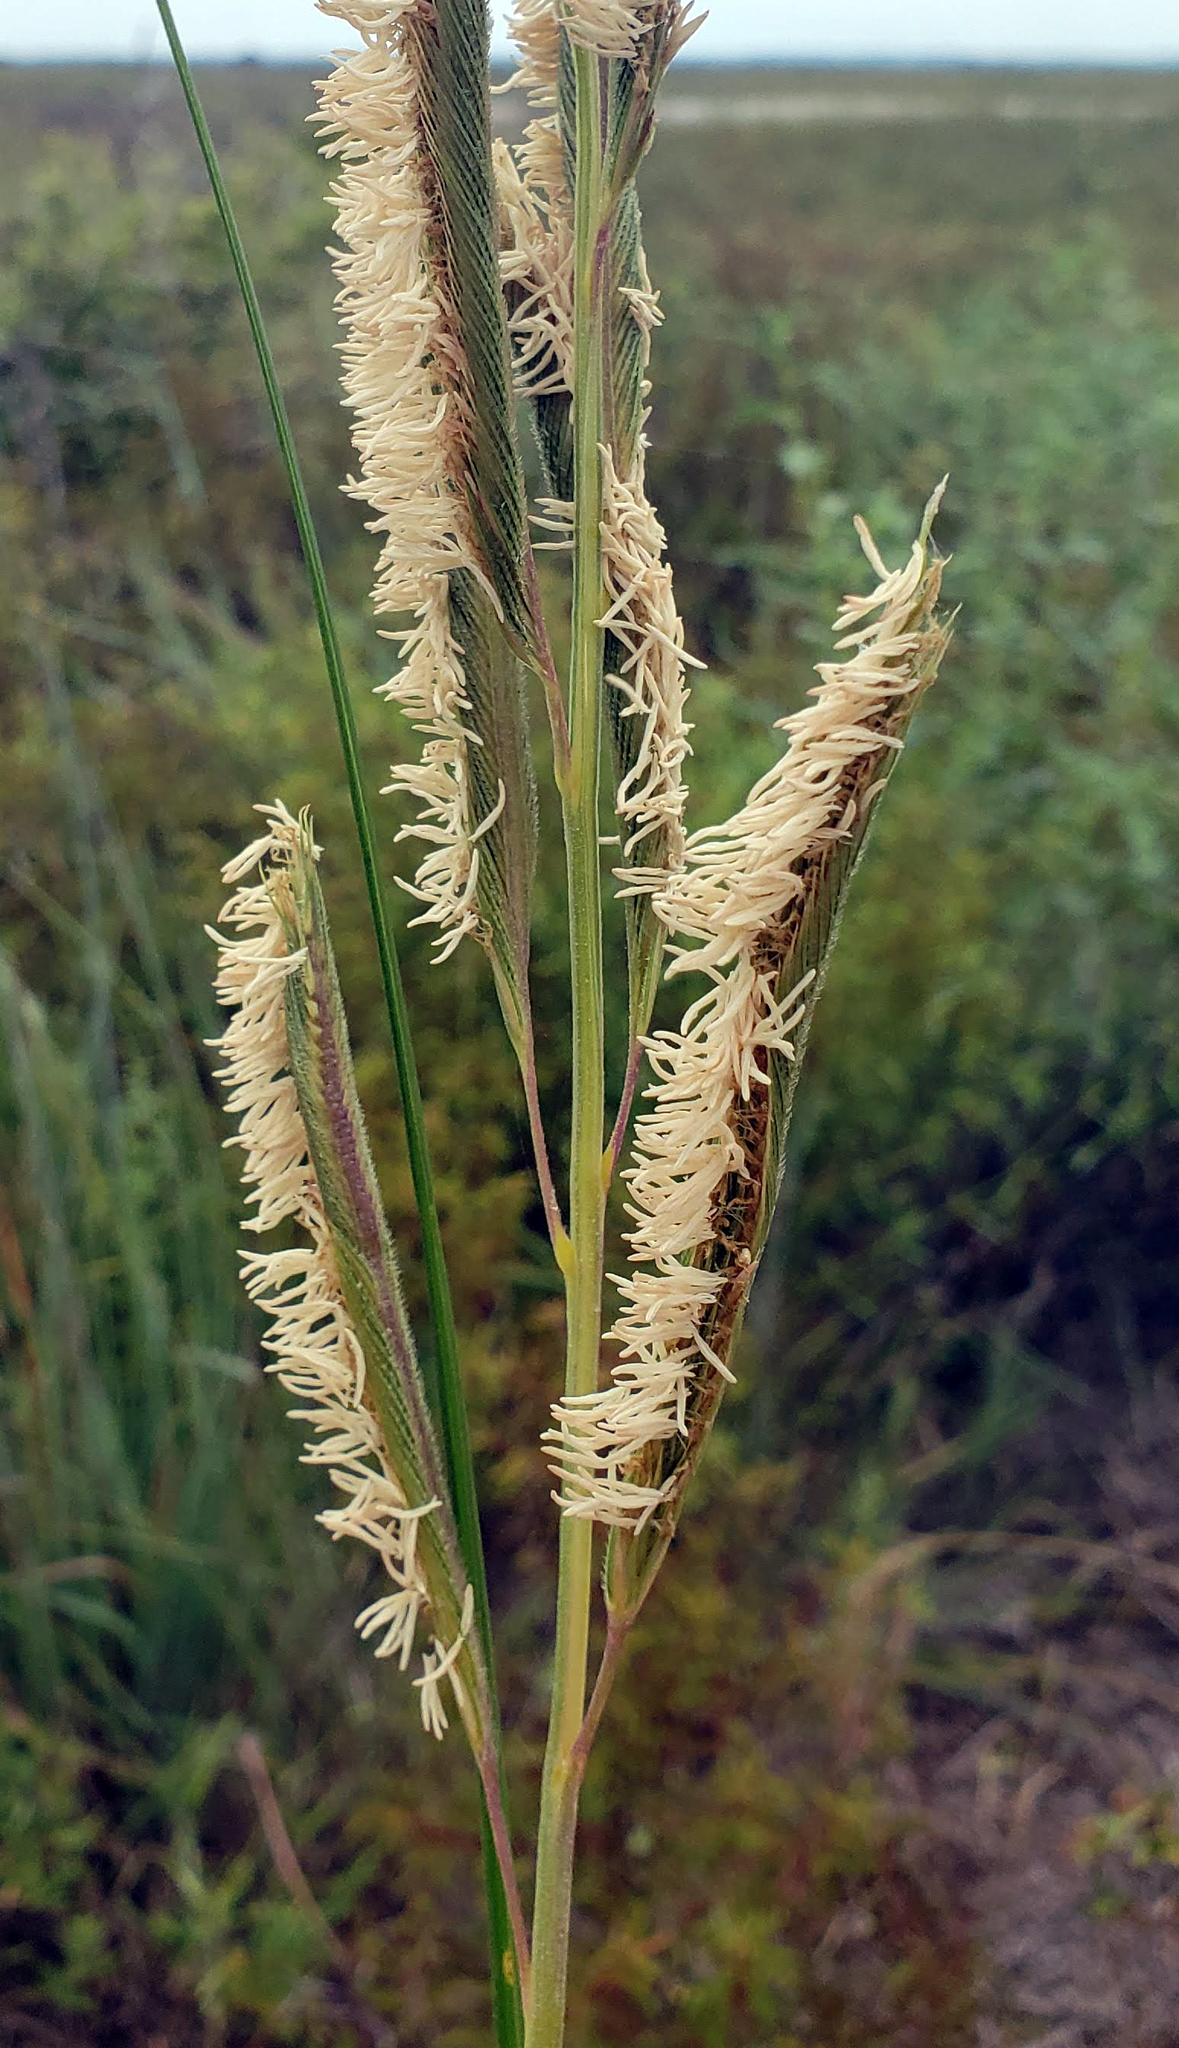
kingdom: Plantae
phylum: Tracheophyta
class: Liliopsida
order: Poales
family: Poaceae
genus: Sporobolus
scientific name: Sporobolus michauxianus
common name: Freshwater cordgrass
